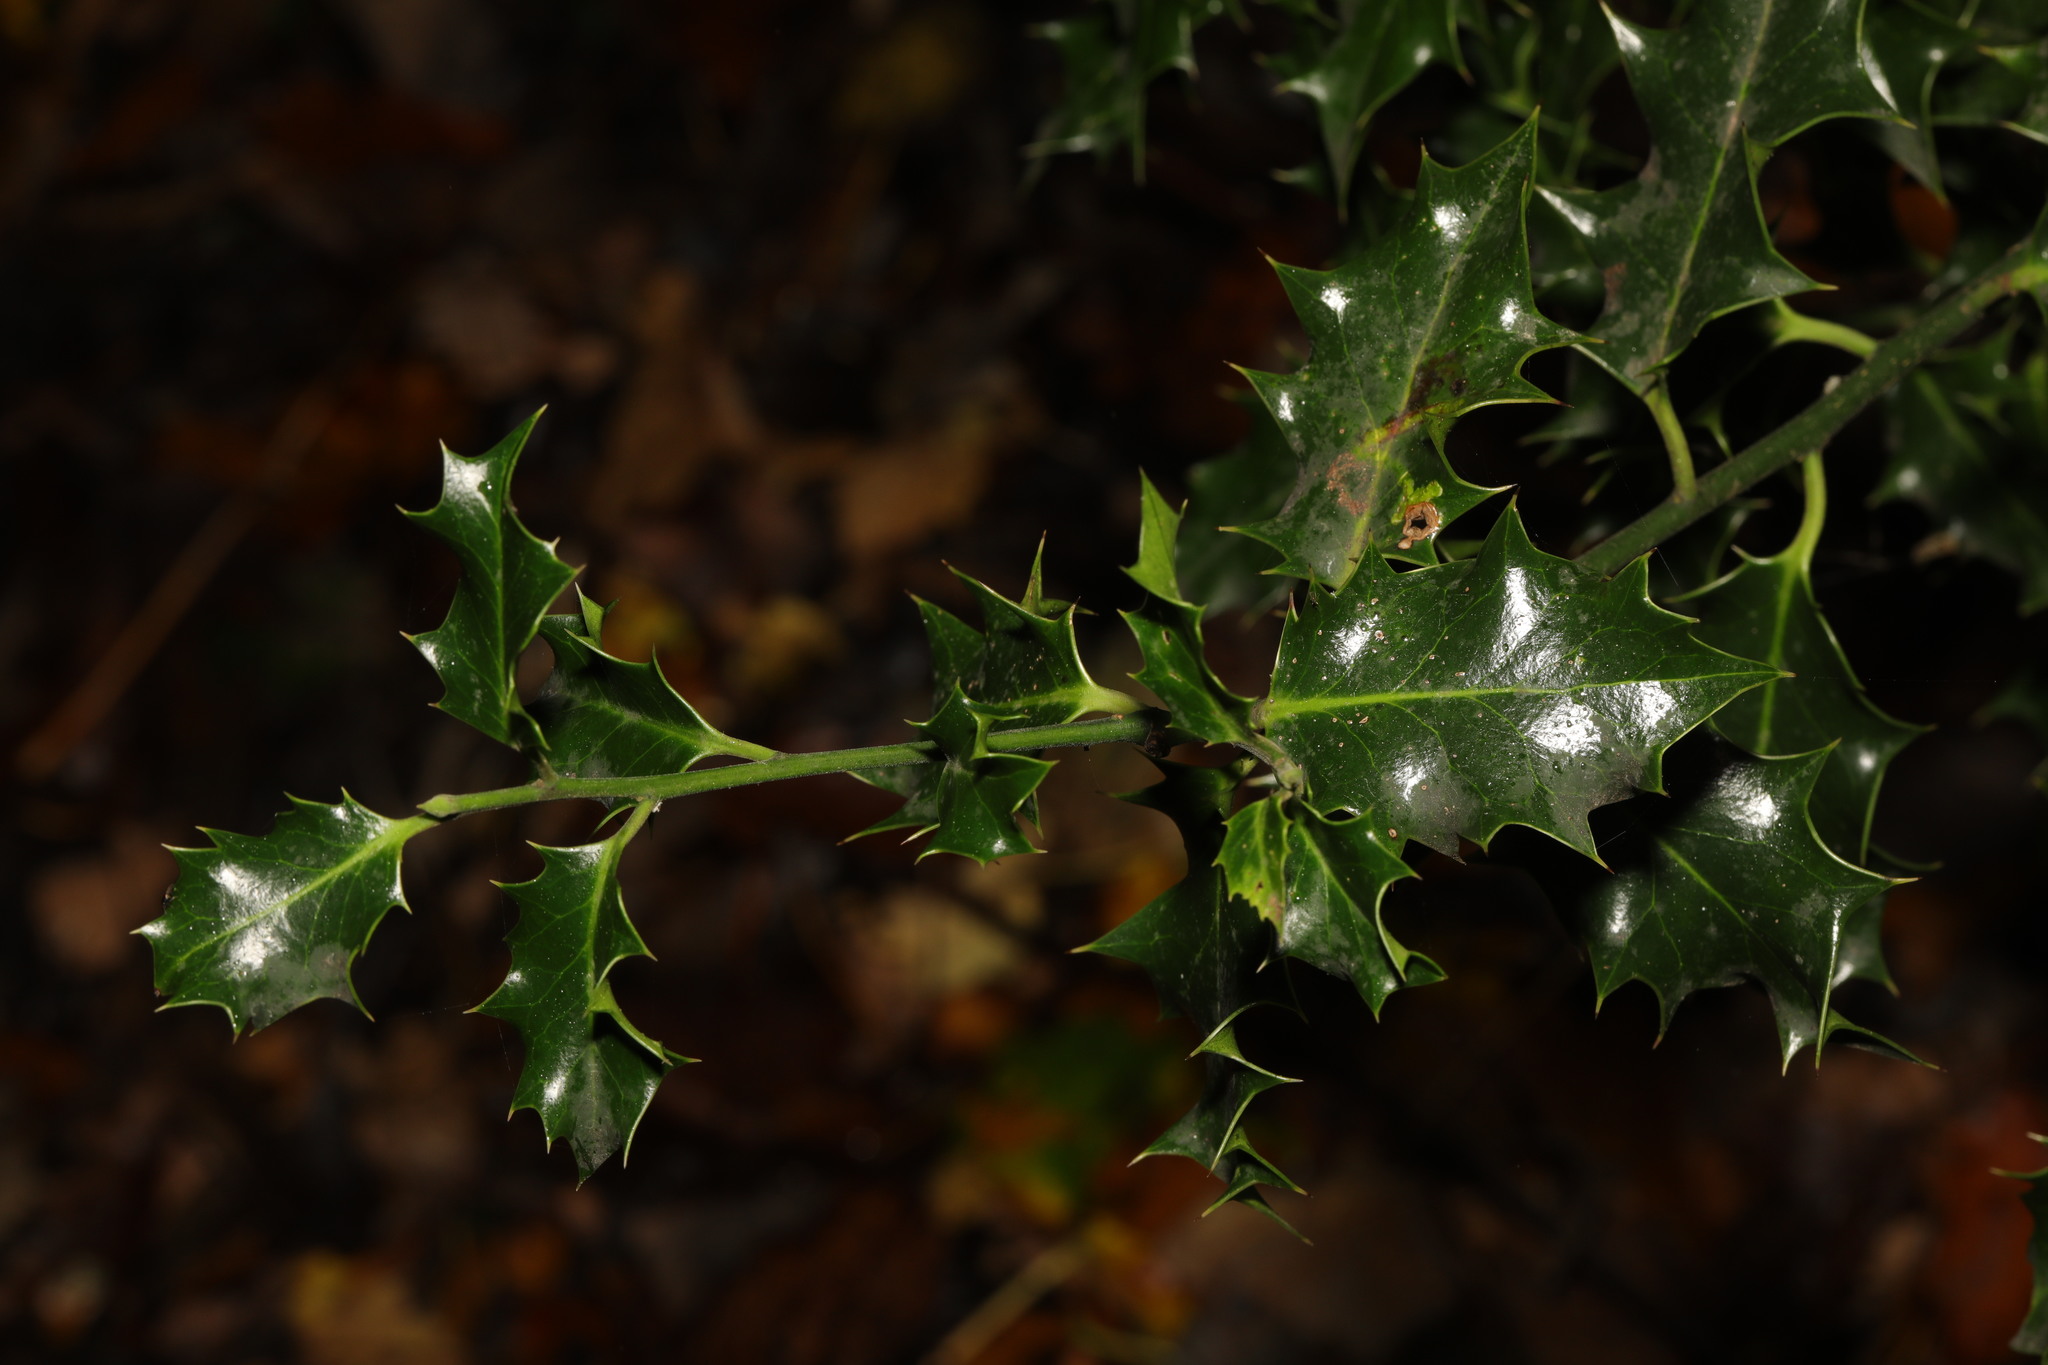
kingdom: Plantae
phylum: Tracheophyta
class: Magnoliopsida
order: Aquifoliales
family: Aquifoliaceae
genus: Ilex
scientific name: Ilex aquifolium
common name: English holly
